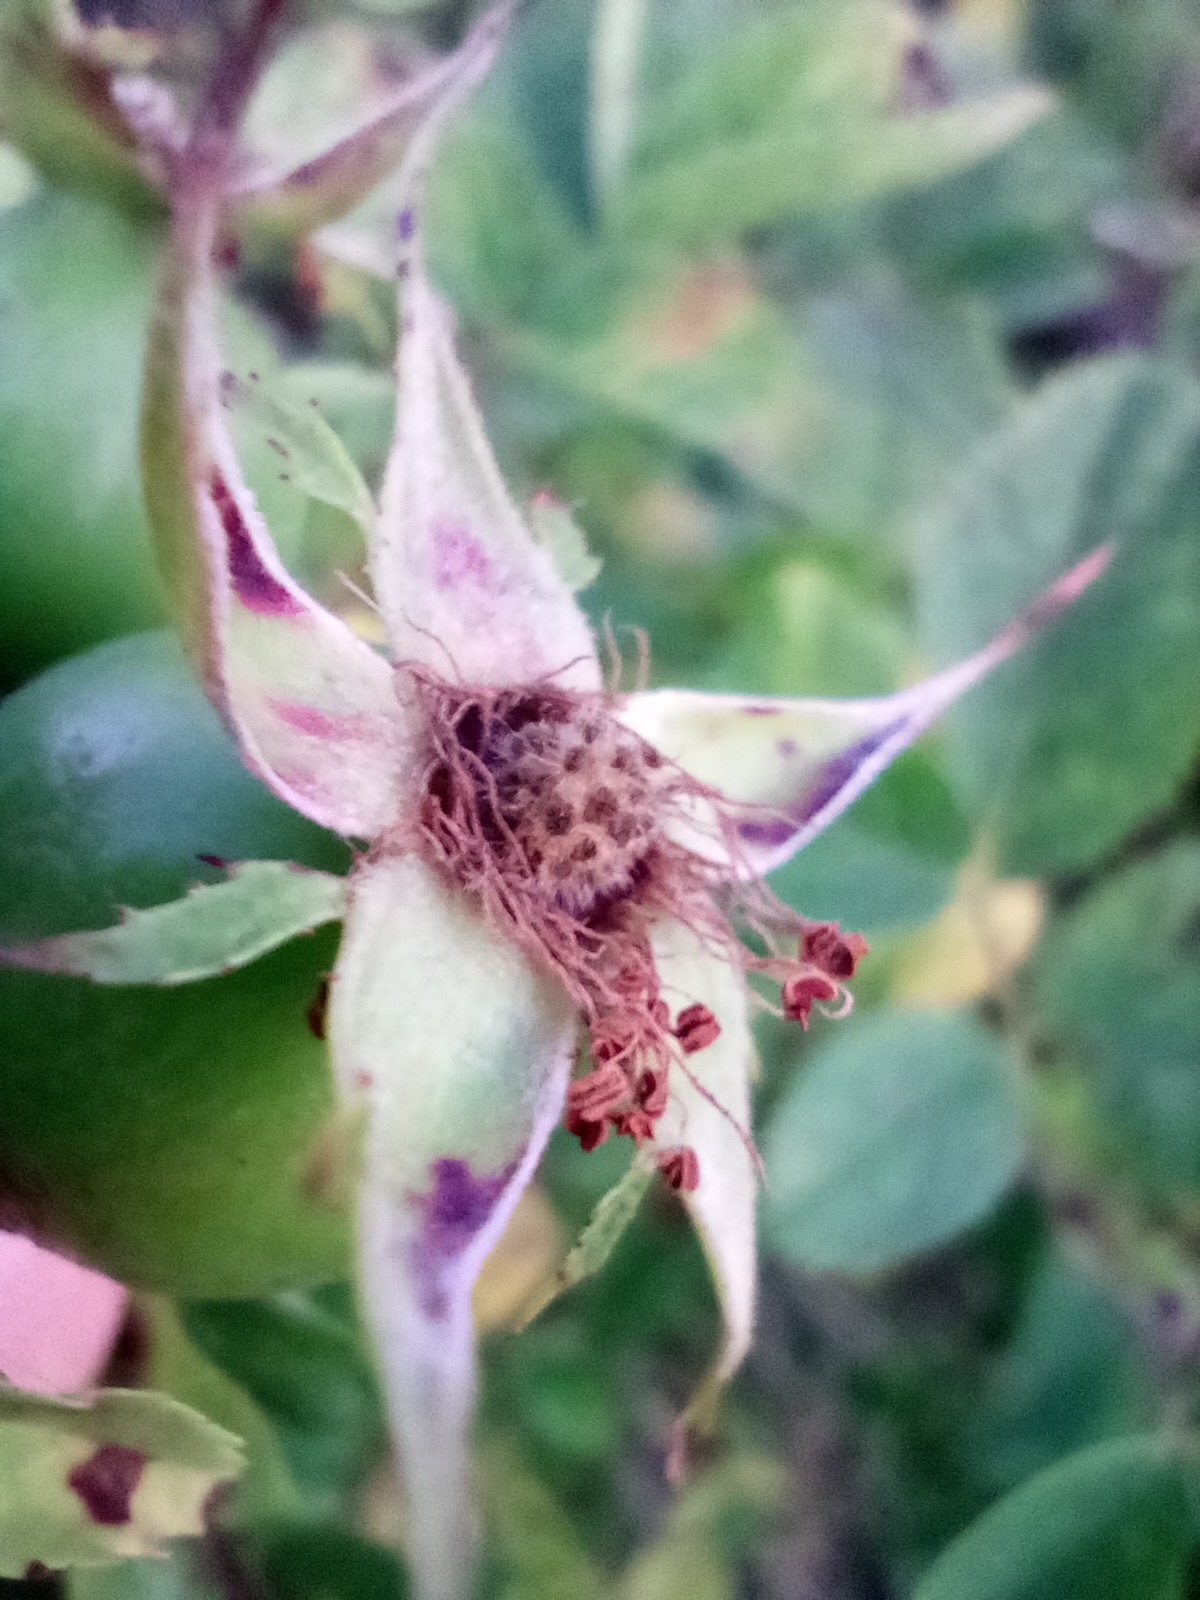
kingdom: Plantae
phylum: Tracheophyta
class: Magnoliopsida
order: Rosales
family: Rosaceae
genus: Rosa
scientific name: Rosa subcanina
